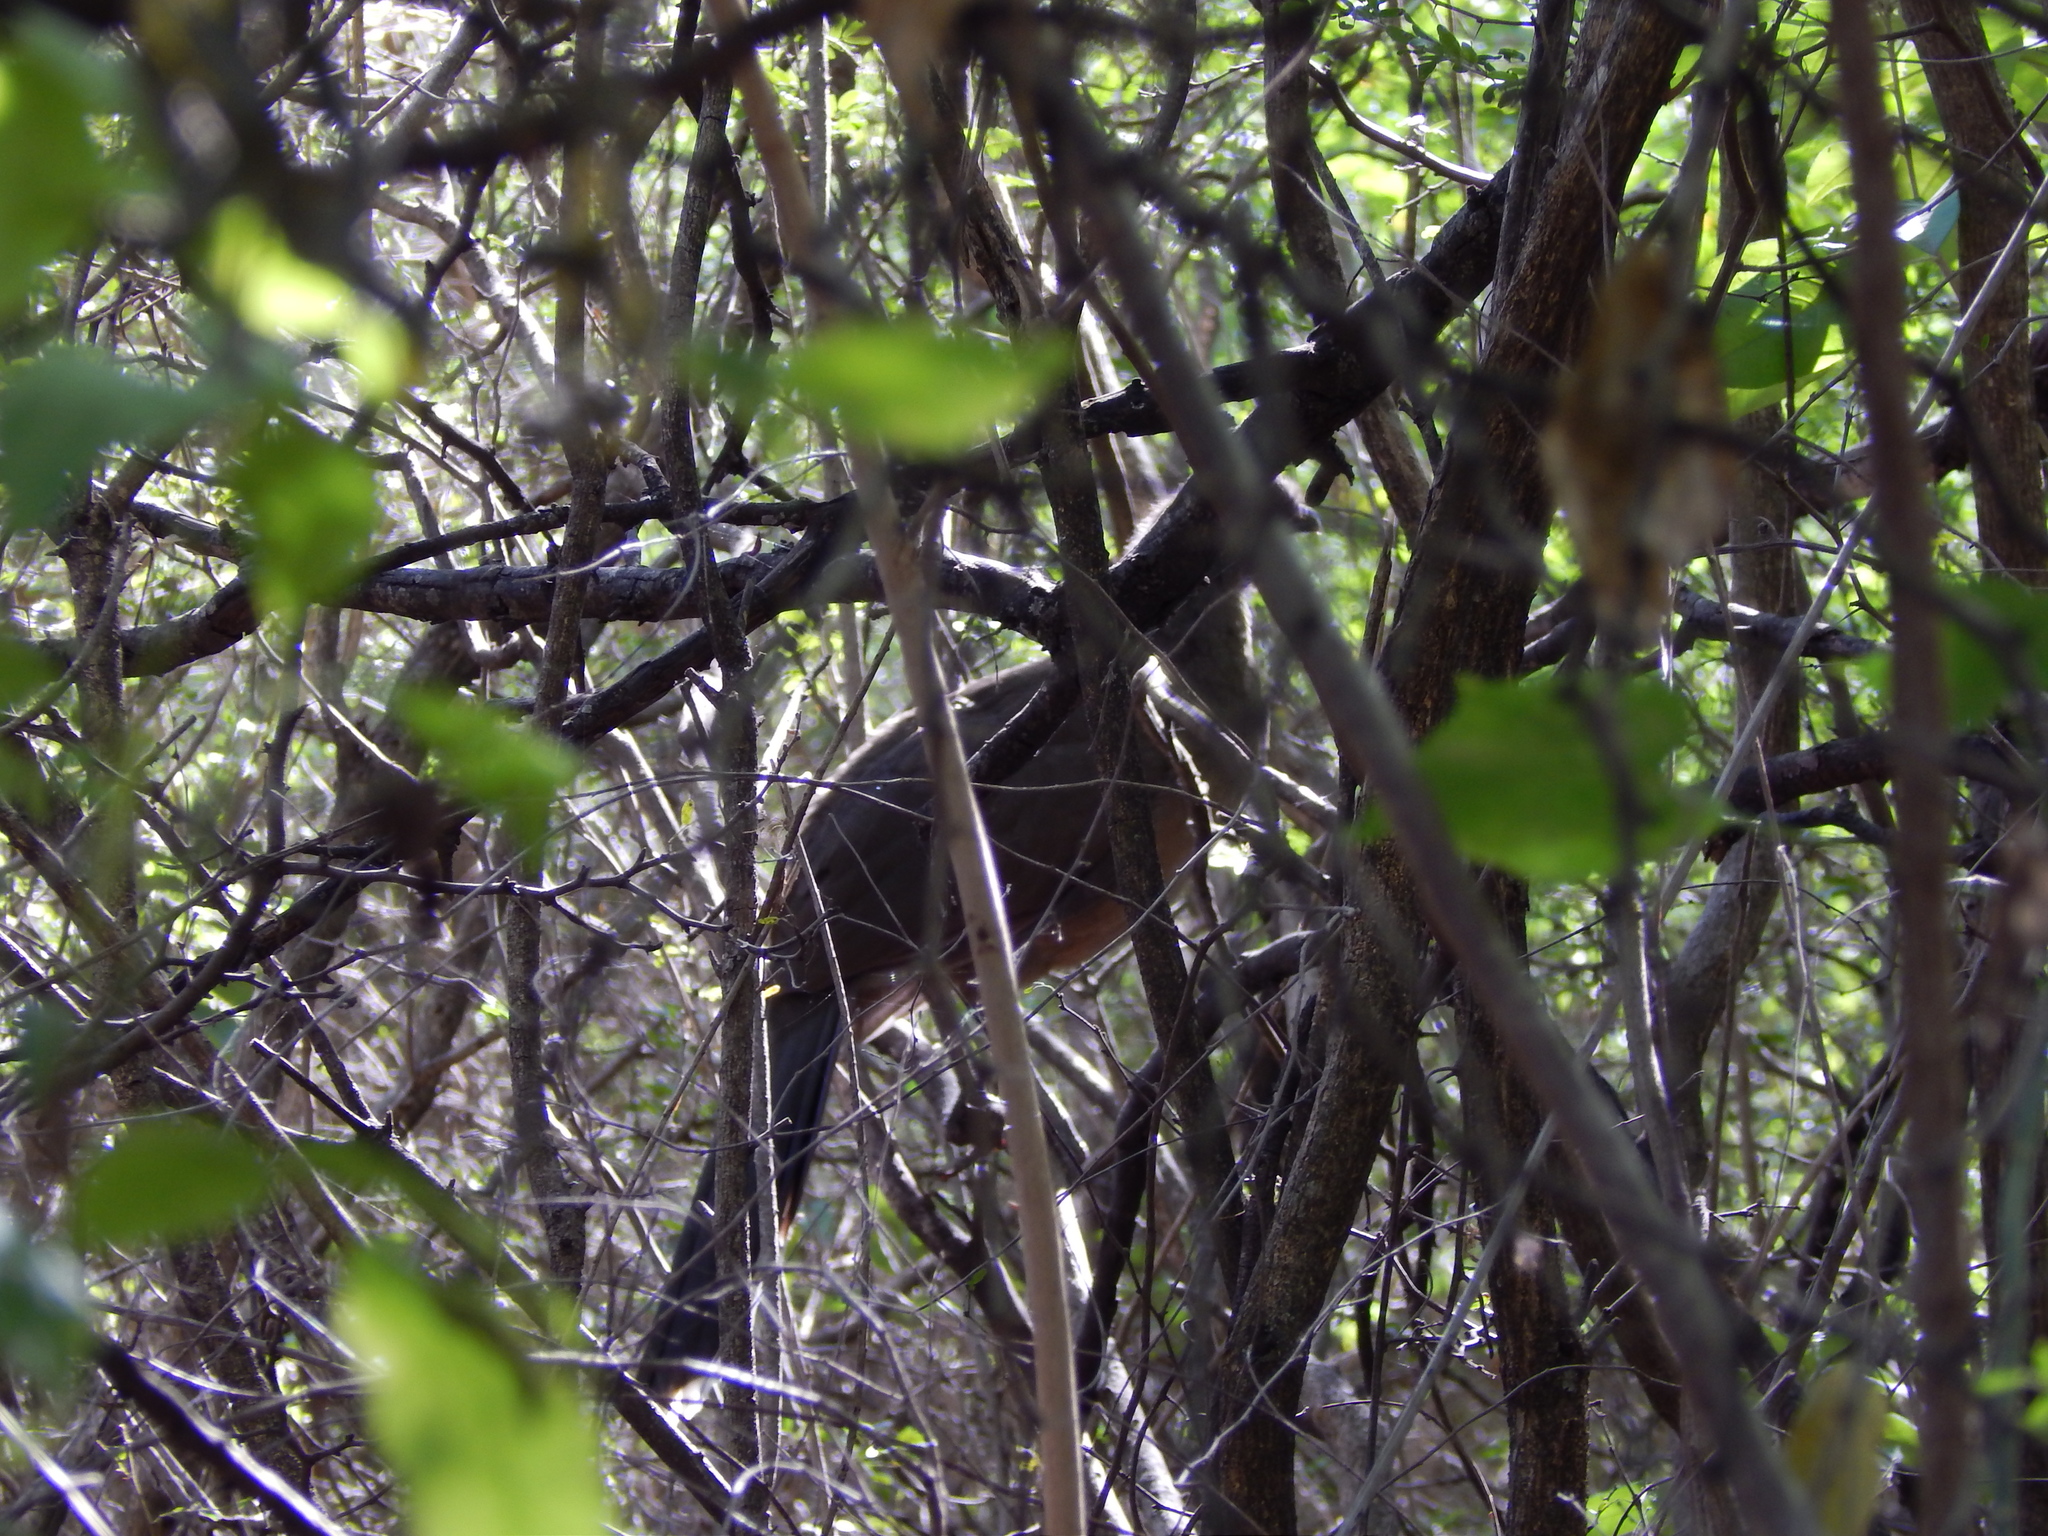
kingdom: Animalia
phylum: Chordata
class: Aves
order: Galliformes
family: Cracidae
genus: Ortalis
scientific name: Ortalis vetula
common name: Plain chachalaca
